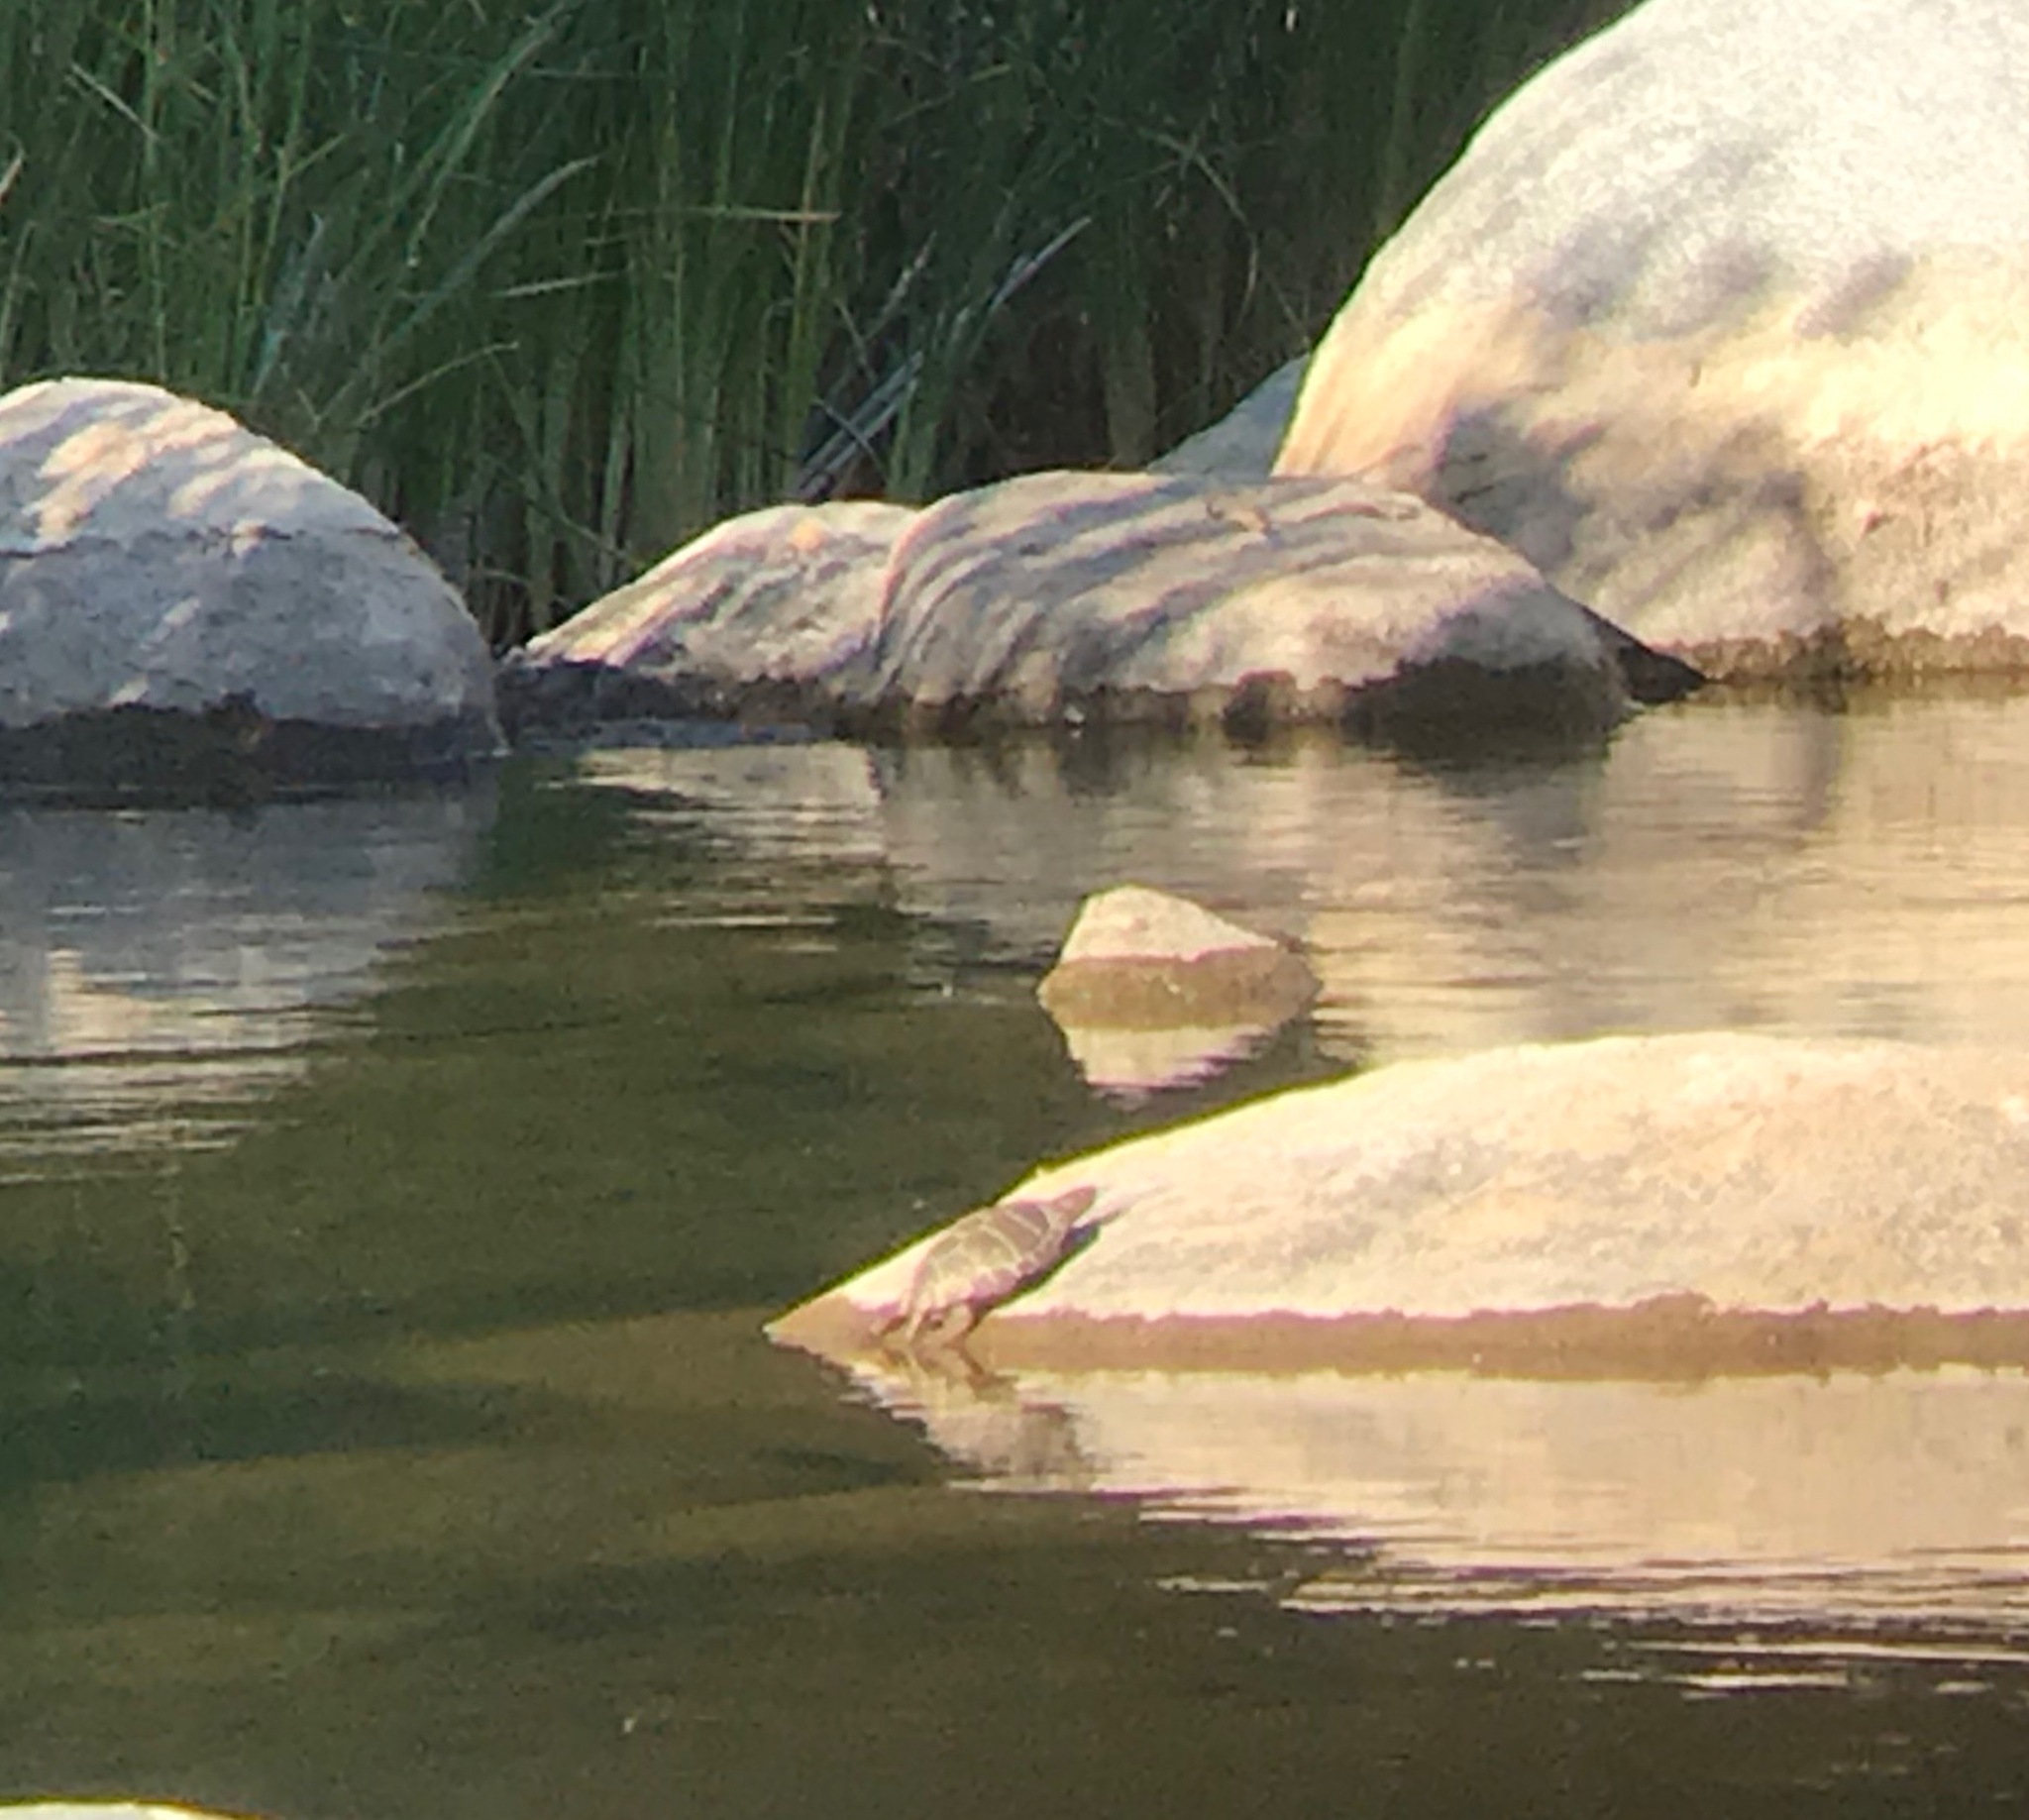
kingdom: Animalia
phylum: Chordata
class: Testudines
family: Emydidae
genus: Actinemys
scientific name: Actinemys pallida
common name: Southern pacific pond turtle
